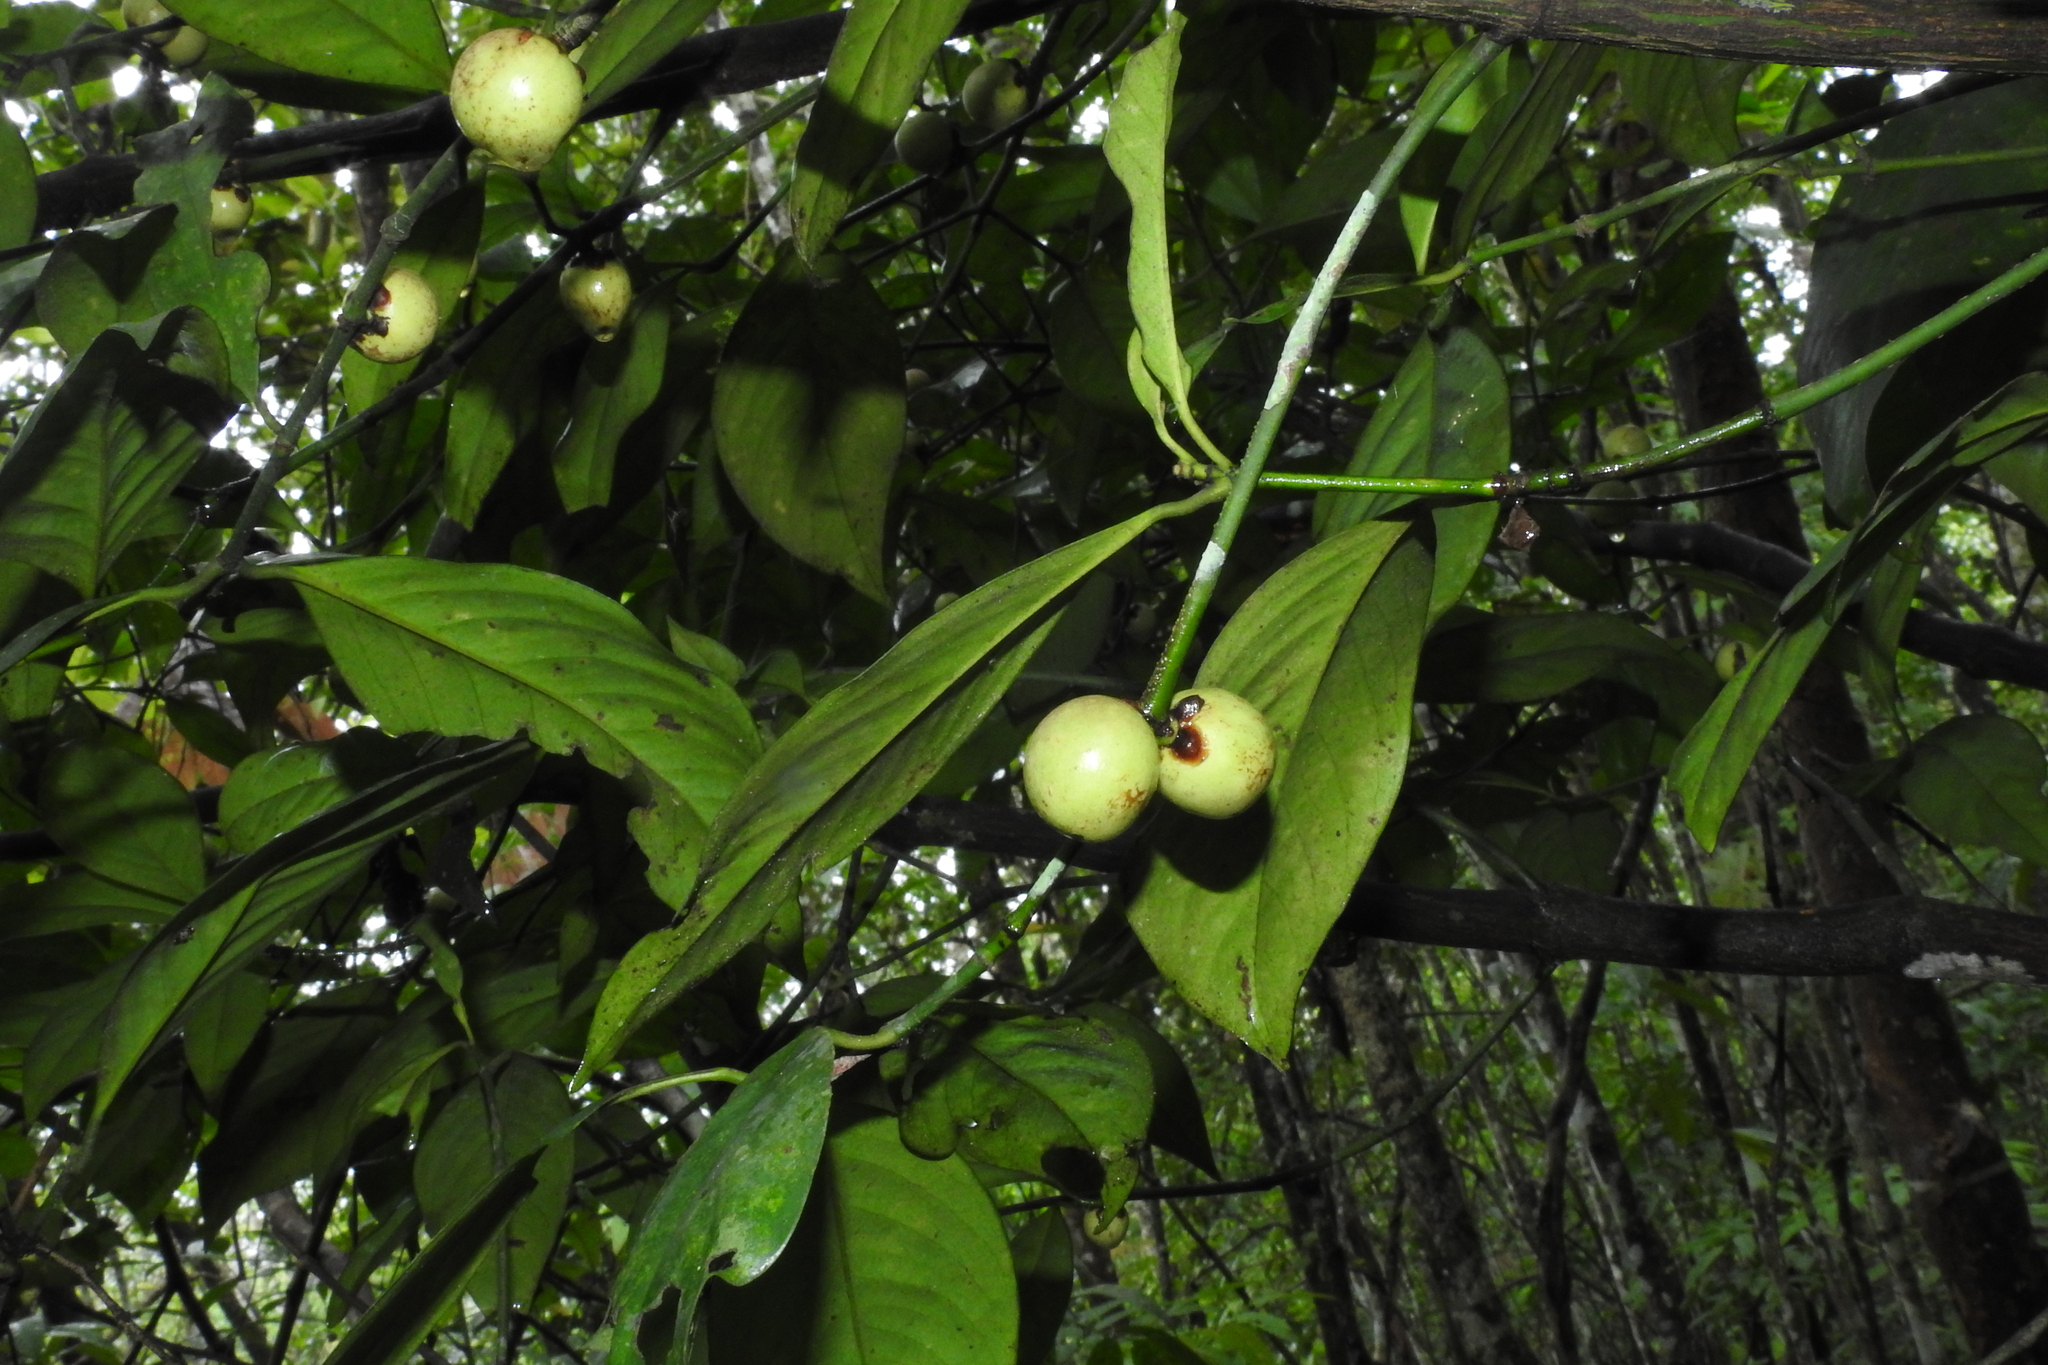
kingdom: Plantae
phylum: Tracheophyta
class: Magnoliopsida
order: Malpighiales
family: Clusiaceae
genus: Garcinia
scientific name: Garcinia morella
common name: Indian gamboge-tree
